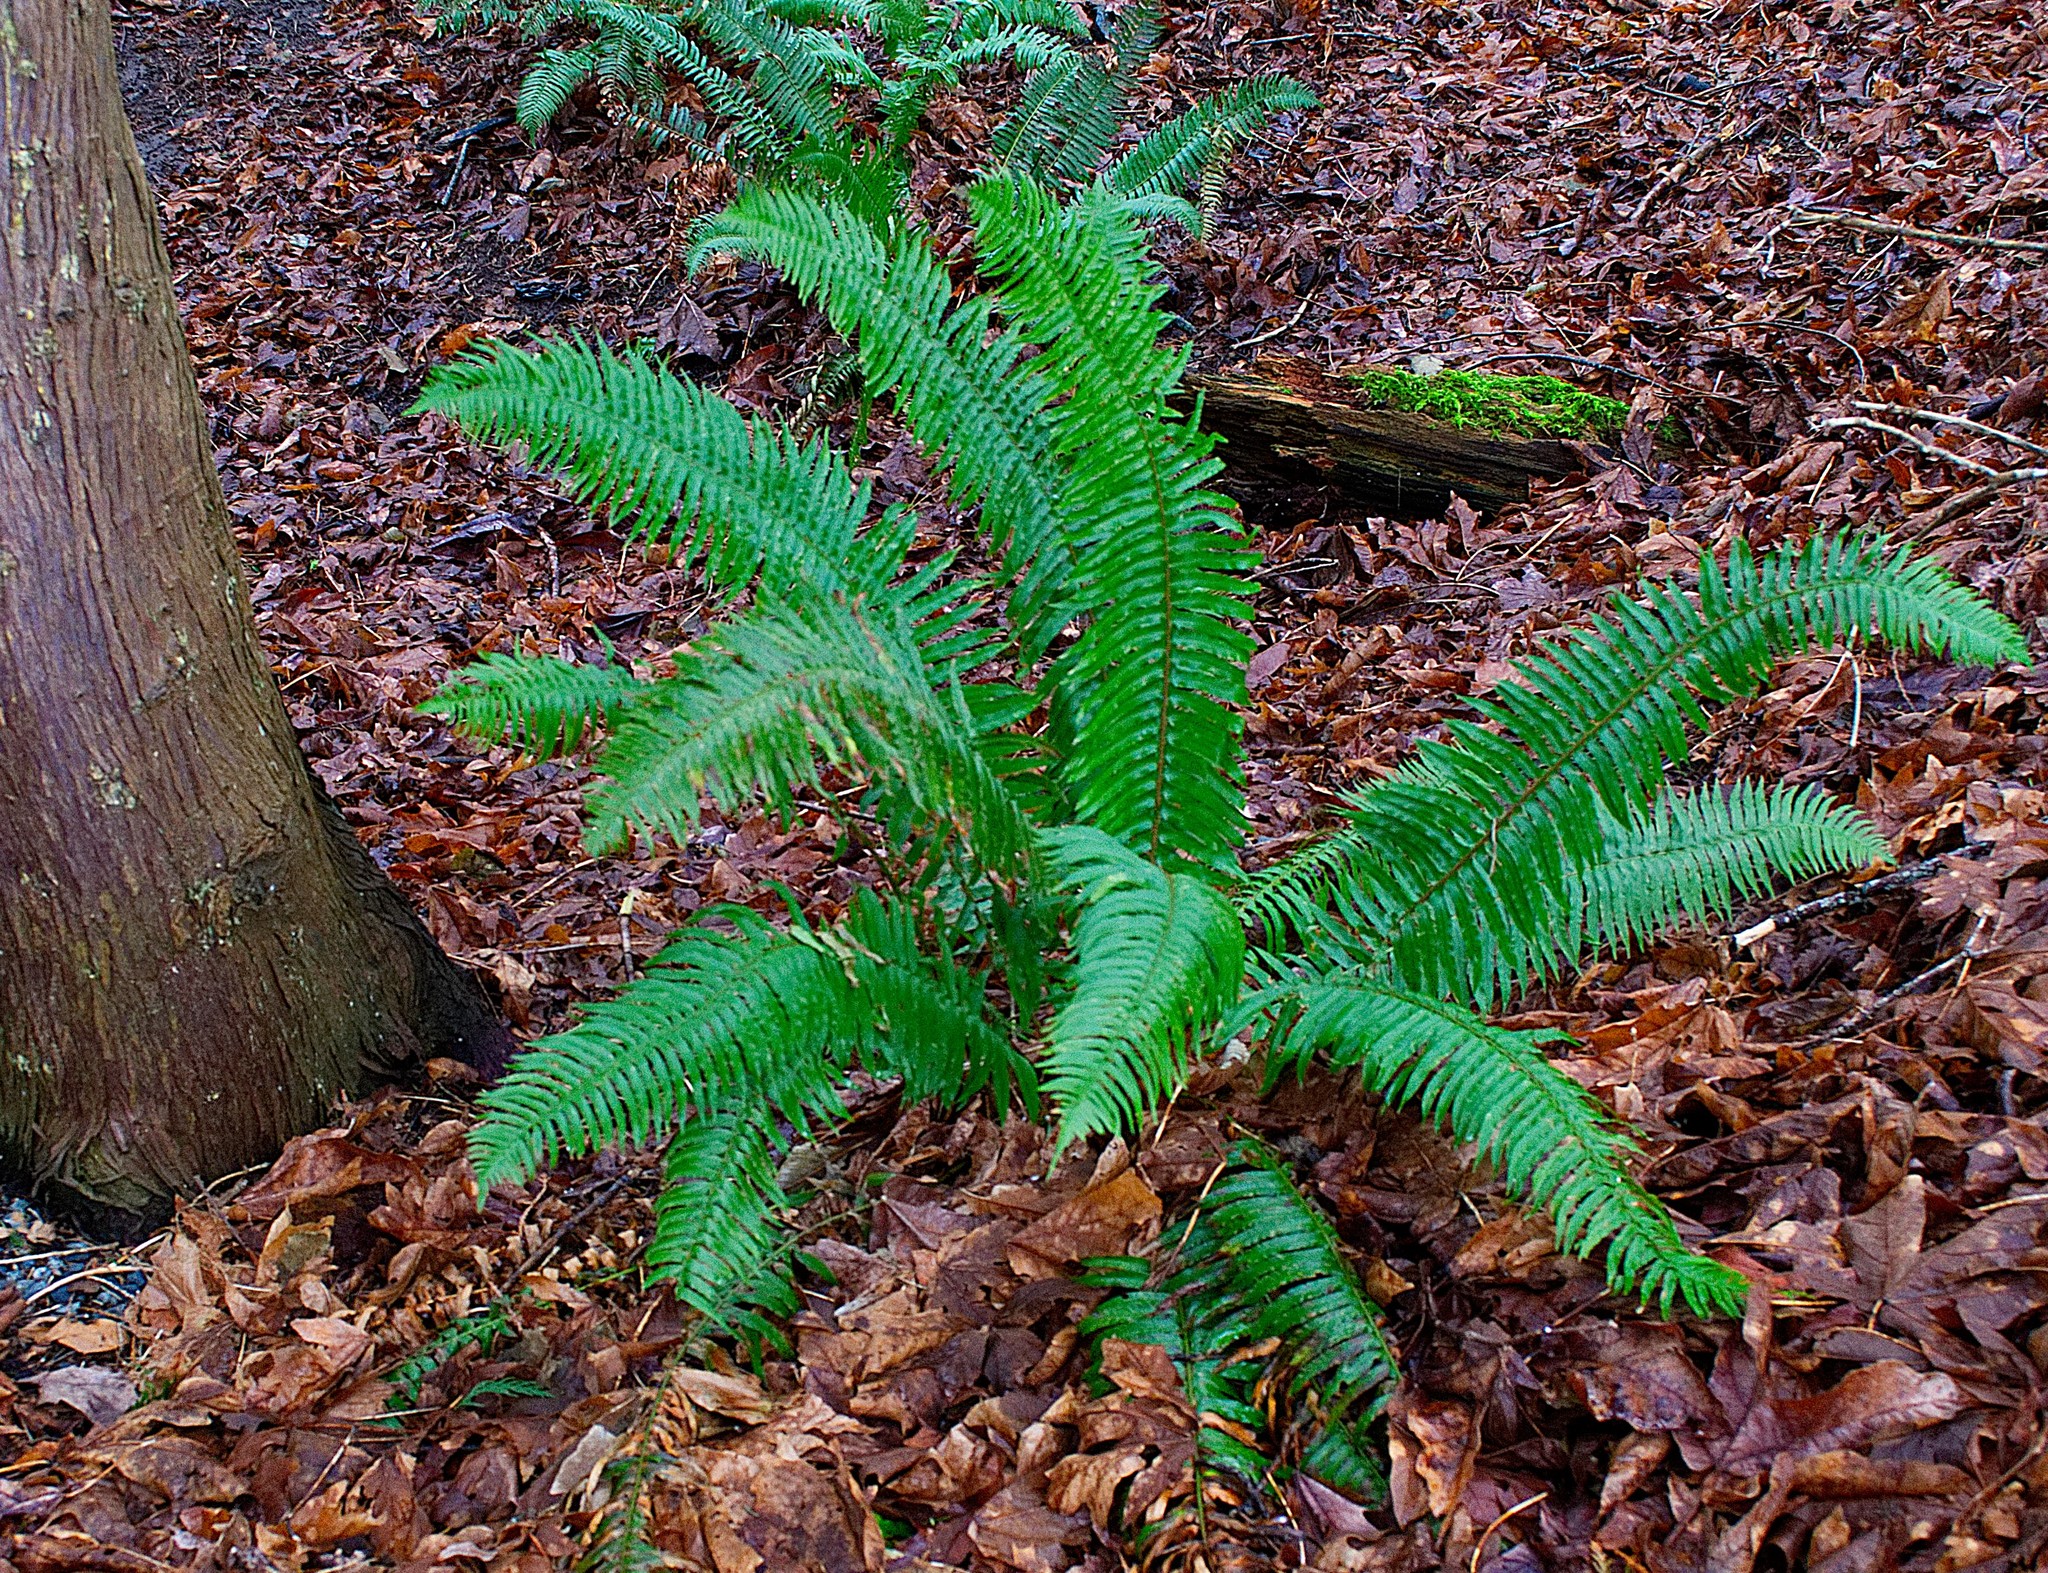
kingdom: Plantae
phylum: Tracheophyta
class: Polypodiopsida
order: Polypodiales
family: Dryopteridaceae
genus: Polystichum
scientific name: Polystichum munitum
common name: Western sword-fern
